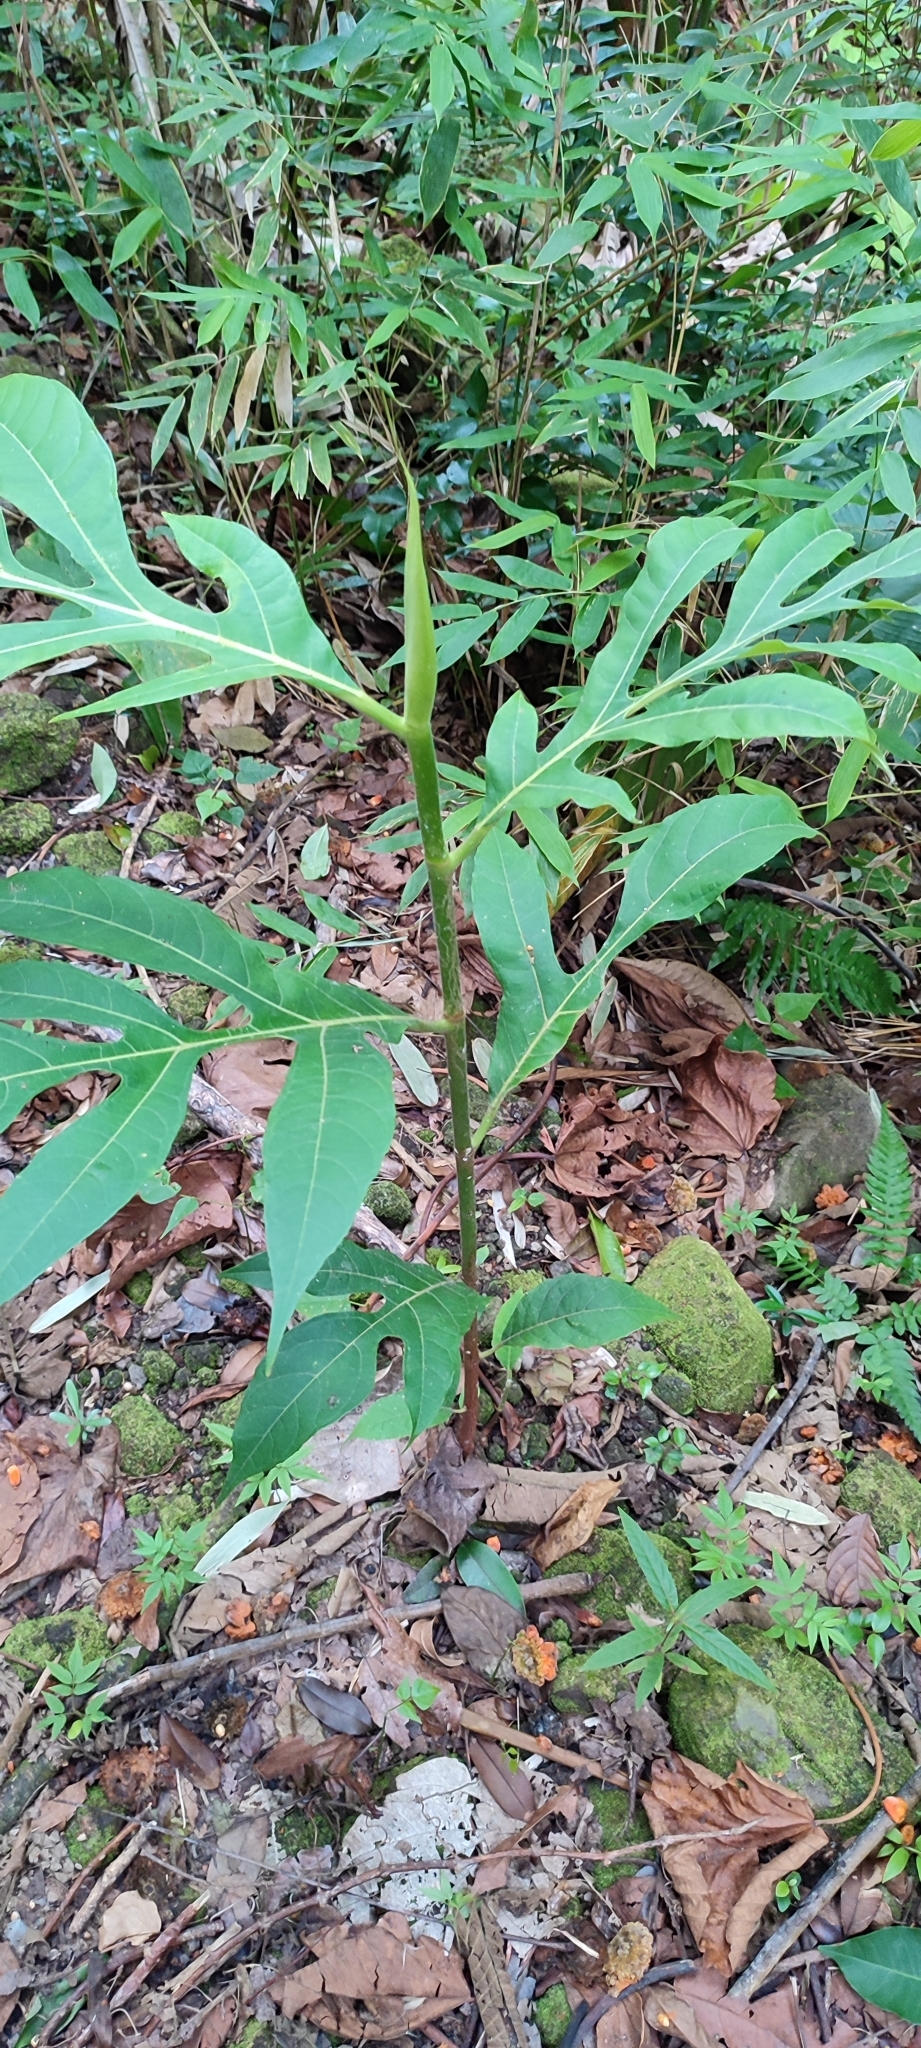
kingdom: Plantae
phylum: Tracheophyta
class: Magnoliopsida
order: Rosales
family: Moraceae
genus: Artocarpus
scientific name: Artocarpus altilis
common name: Breadfruit
